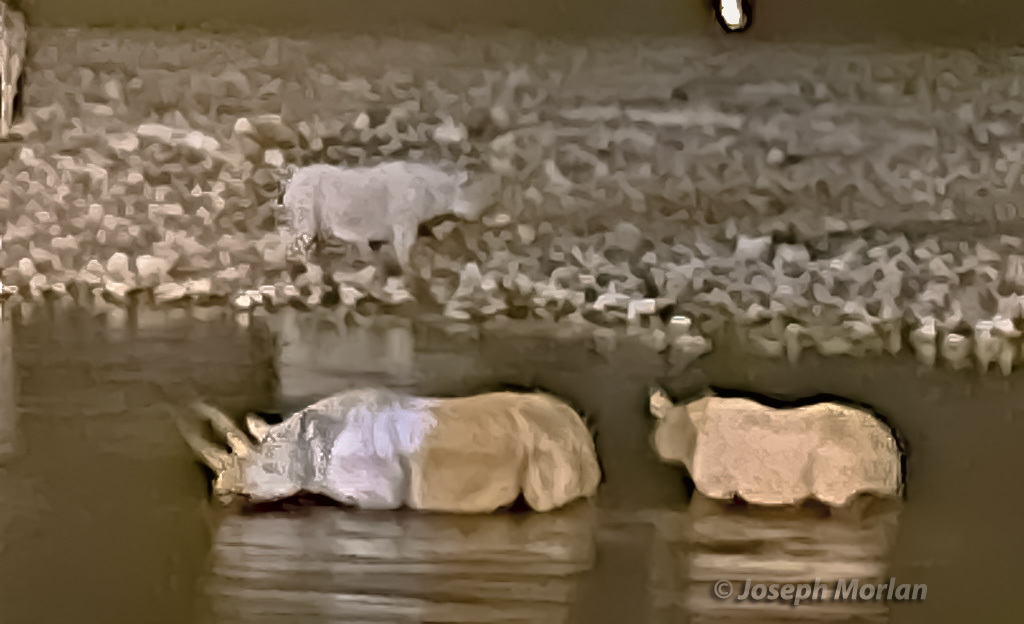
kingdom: Animalia
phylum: Chordata
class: Mammalia
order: Perissodactyla
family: Rhinocerotidae
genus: Diceros
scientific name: Diceros bicornis
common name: Black rhinoceros
